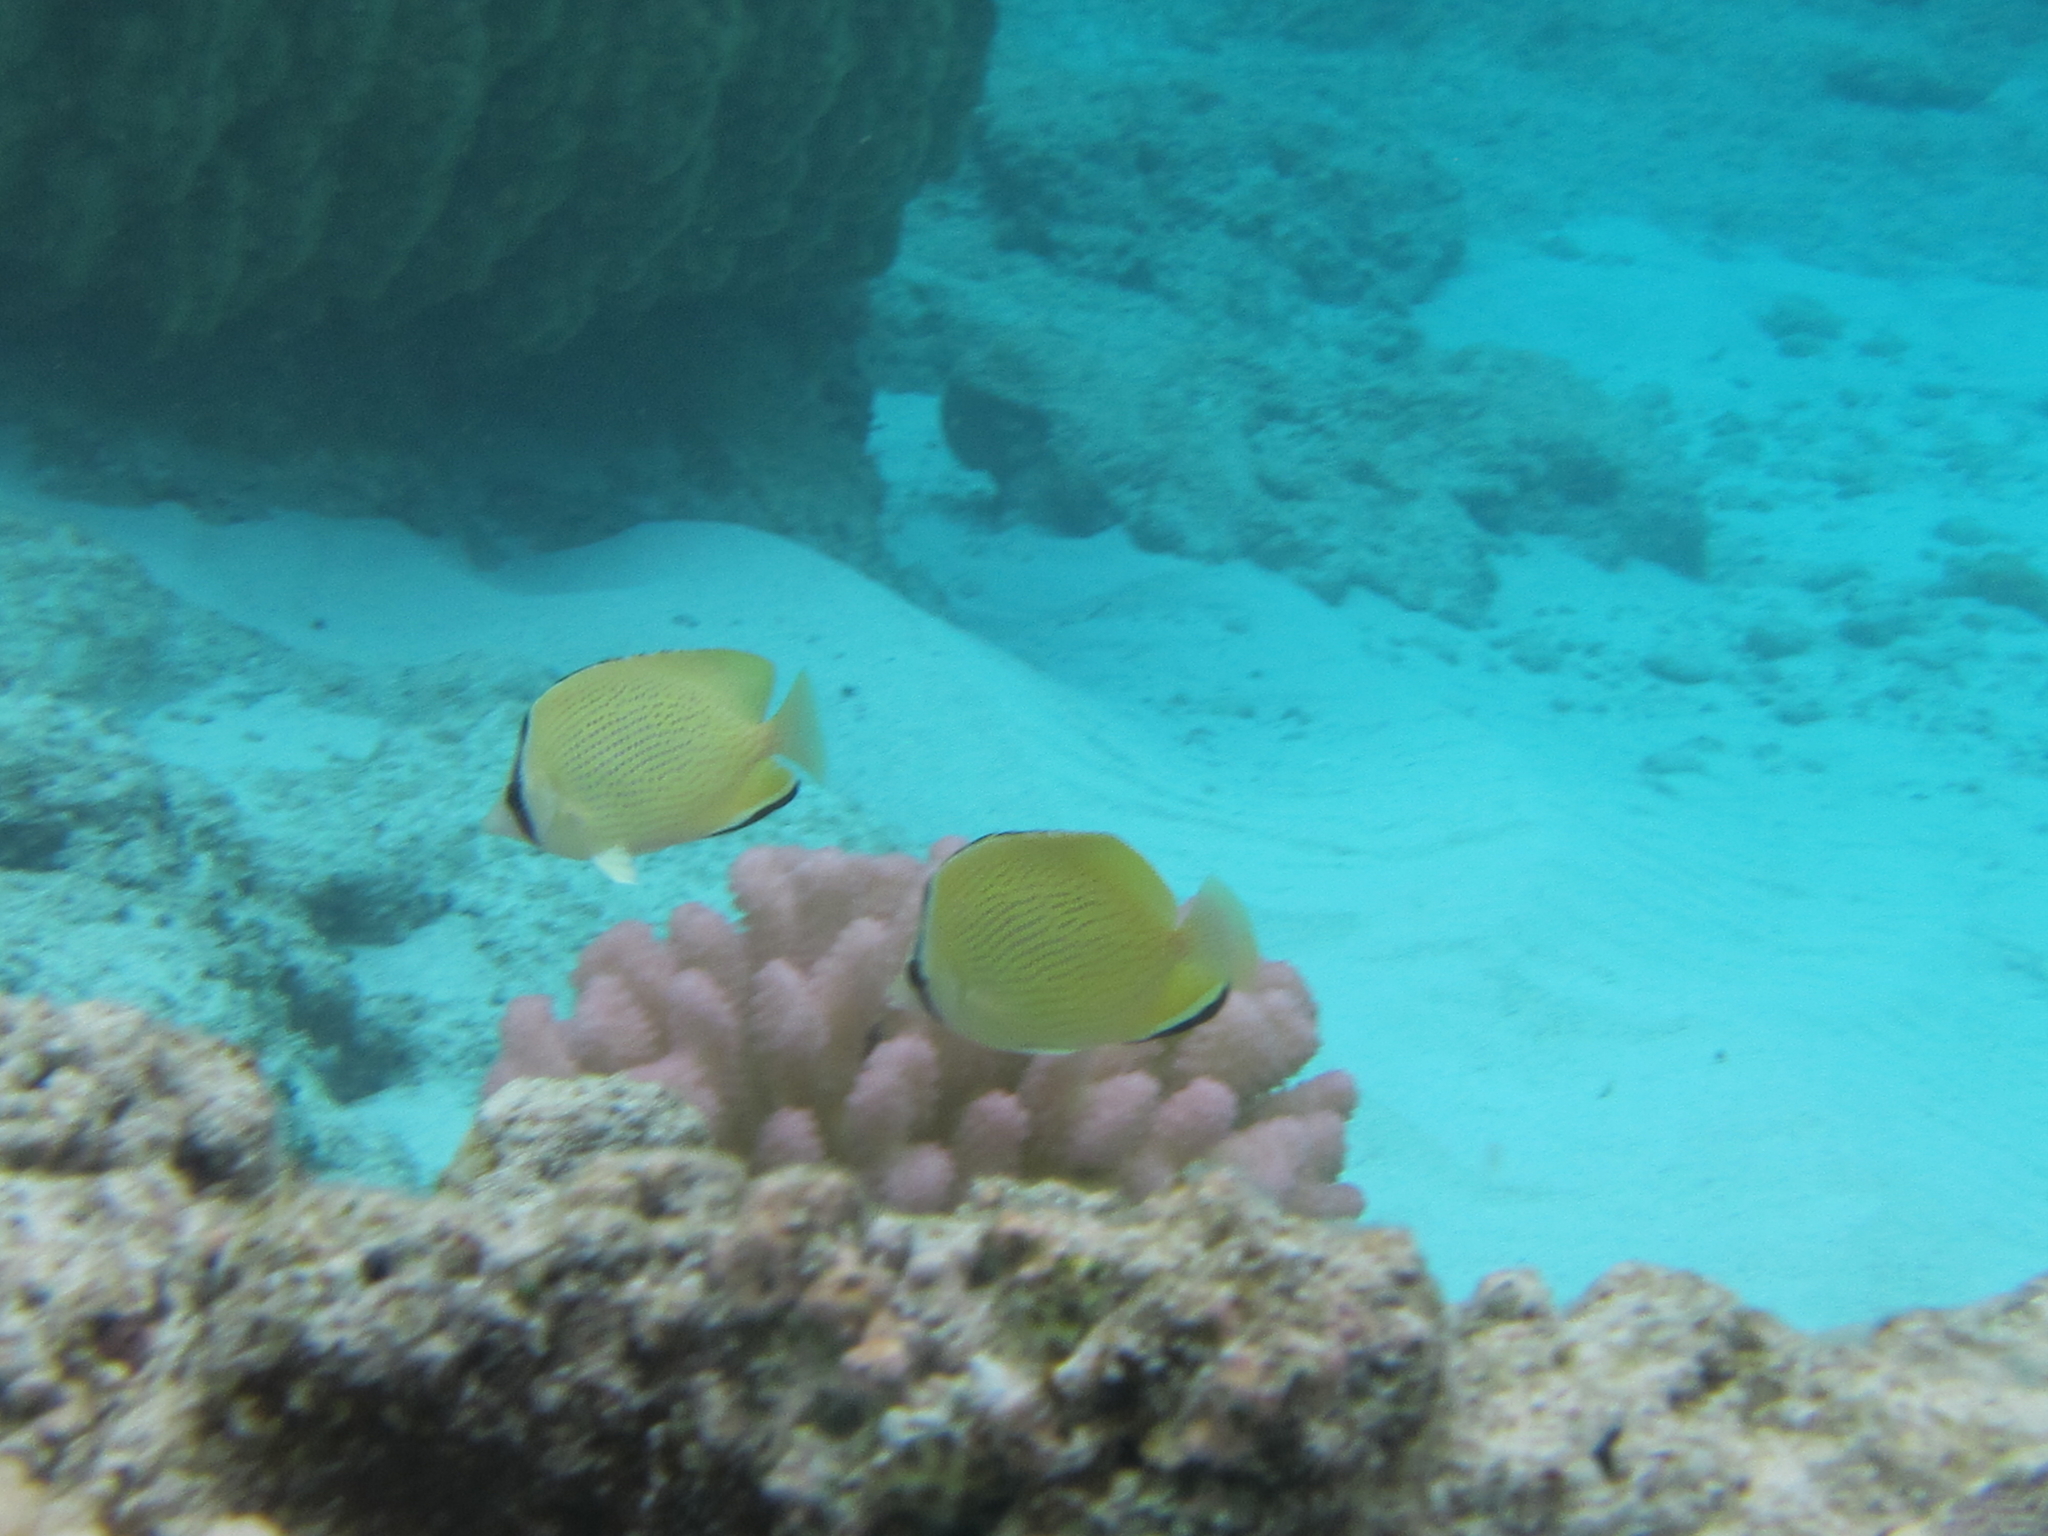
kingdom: Animalia
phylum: Chordata
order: Perciformes
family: Chaetodontidae
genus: Chaetodon
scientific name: Chaetodon citrinellus
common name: Speckled butterflyfish
